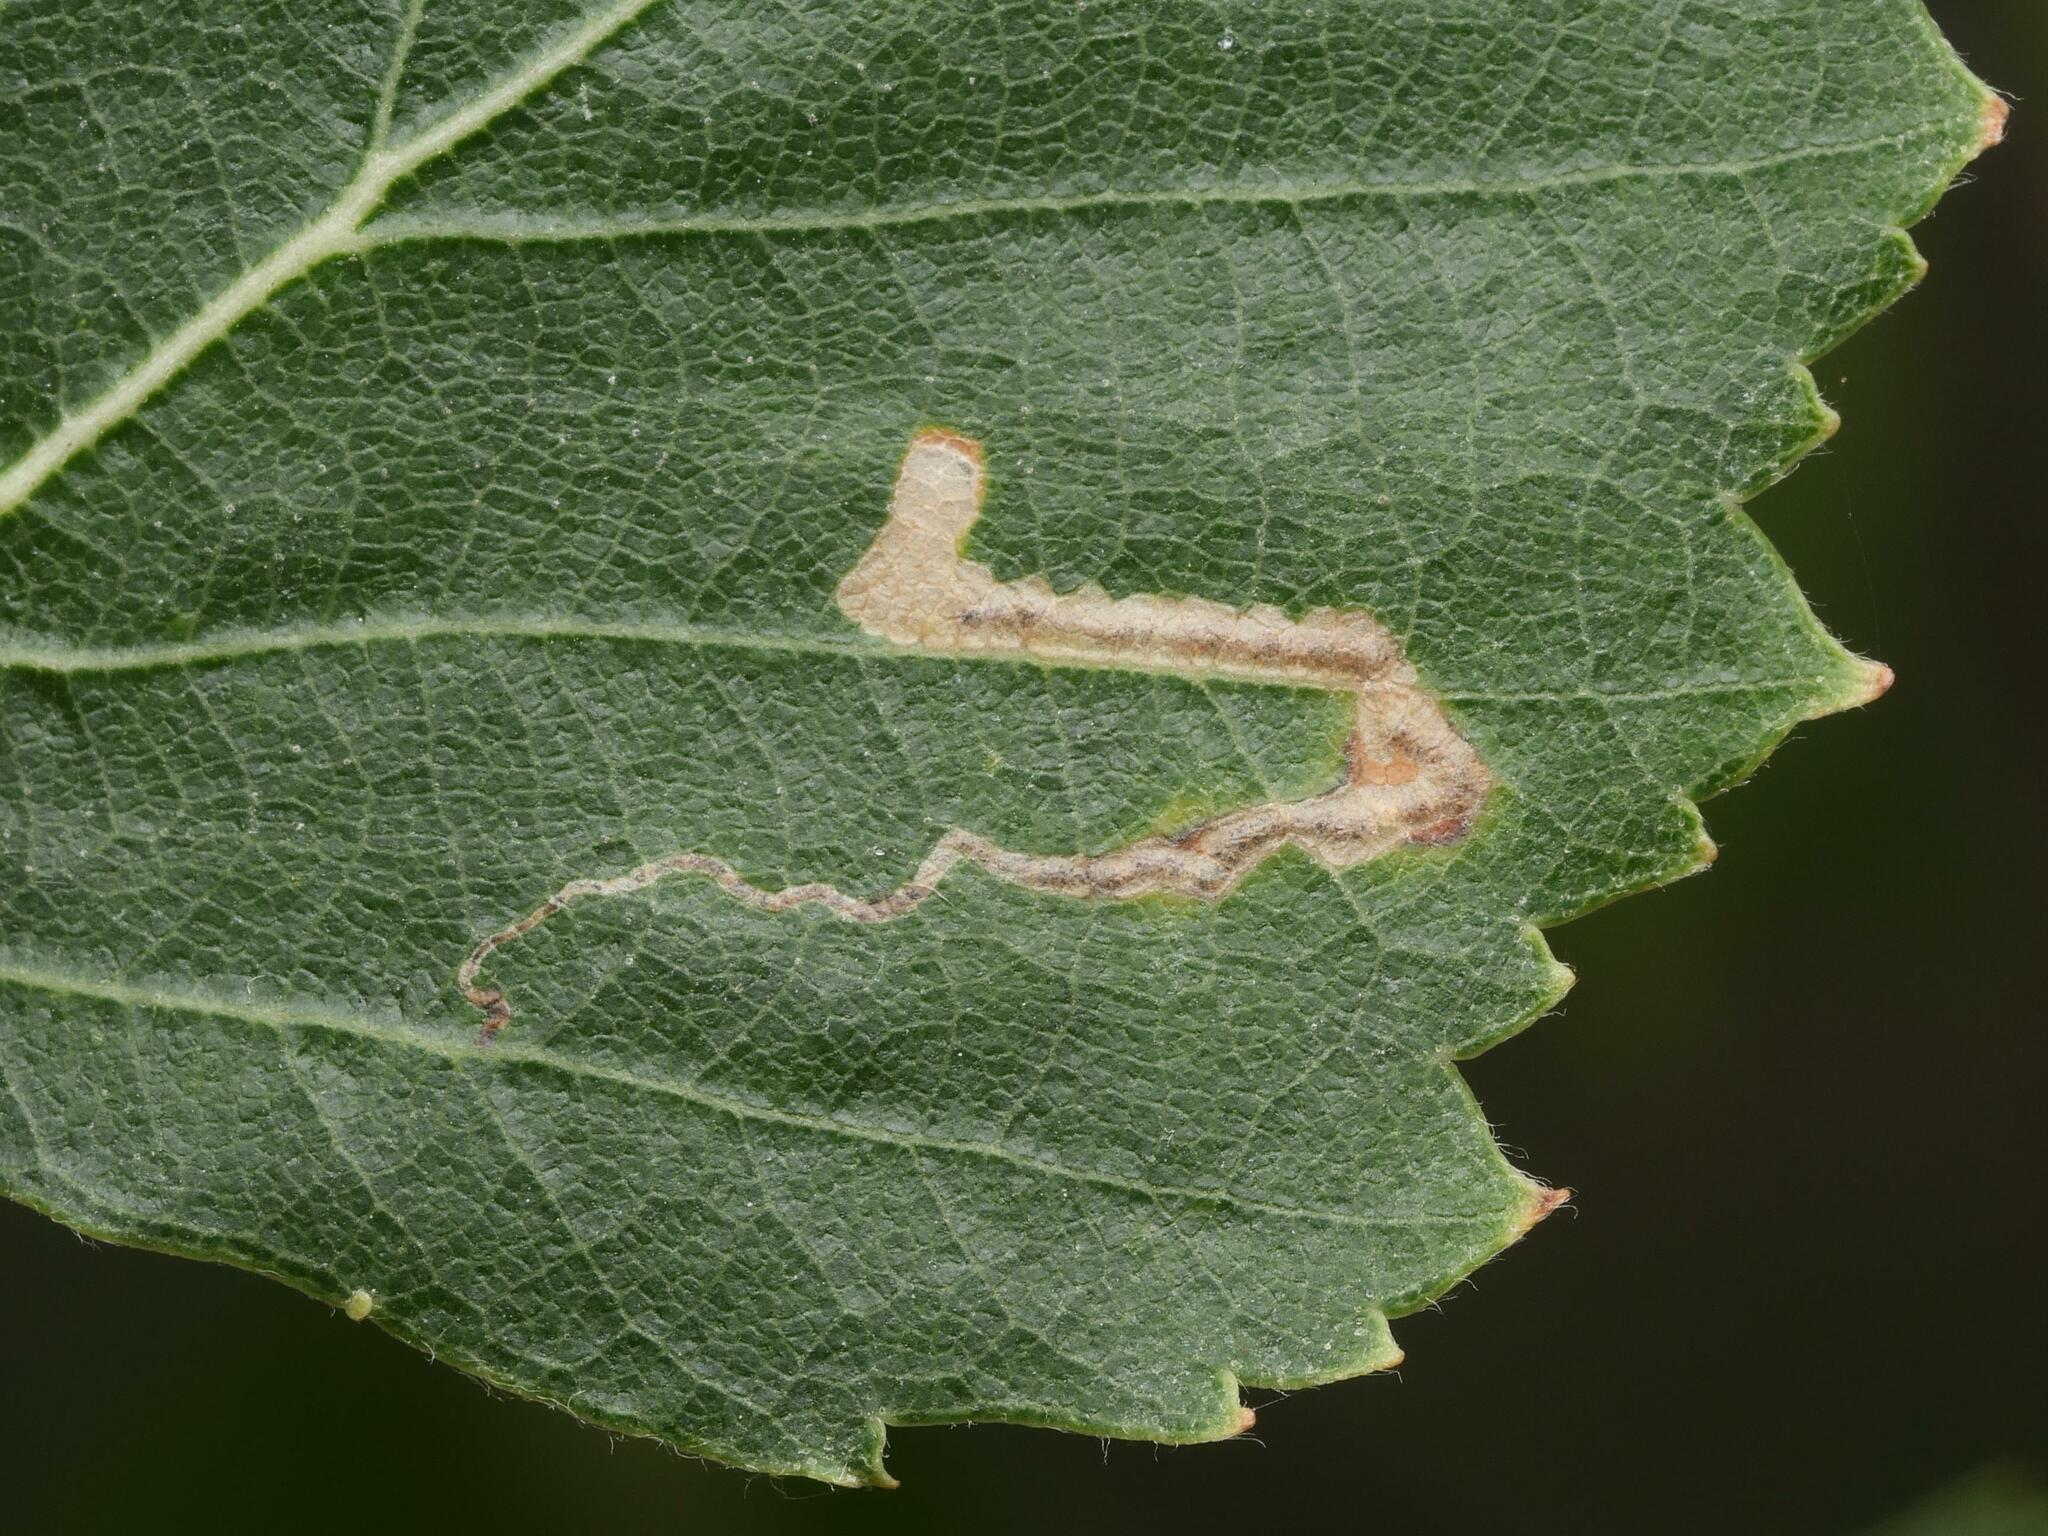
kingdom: Animalia
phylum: Arthropoda
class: Insecta
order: Lepidoptera
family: Nepticulidae
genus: Stigmella
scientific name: Stigmella sakhalinella
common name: Small birch pigmy
